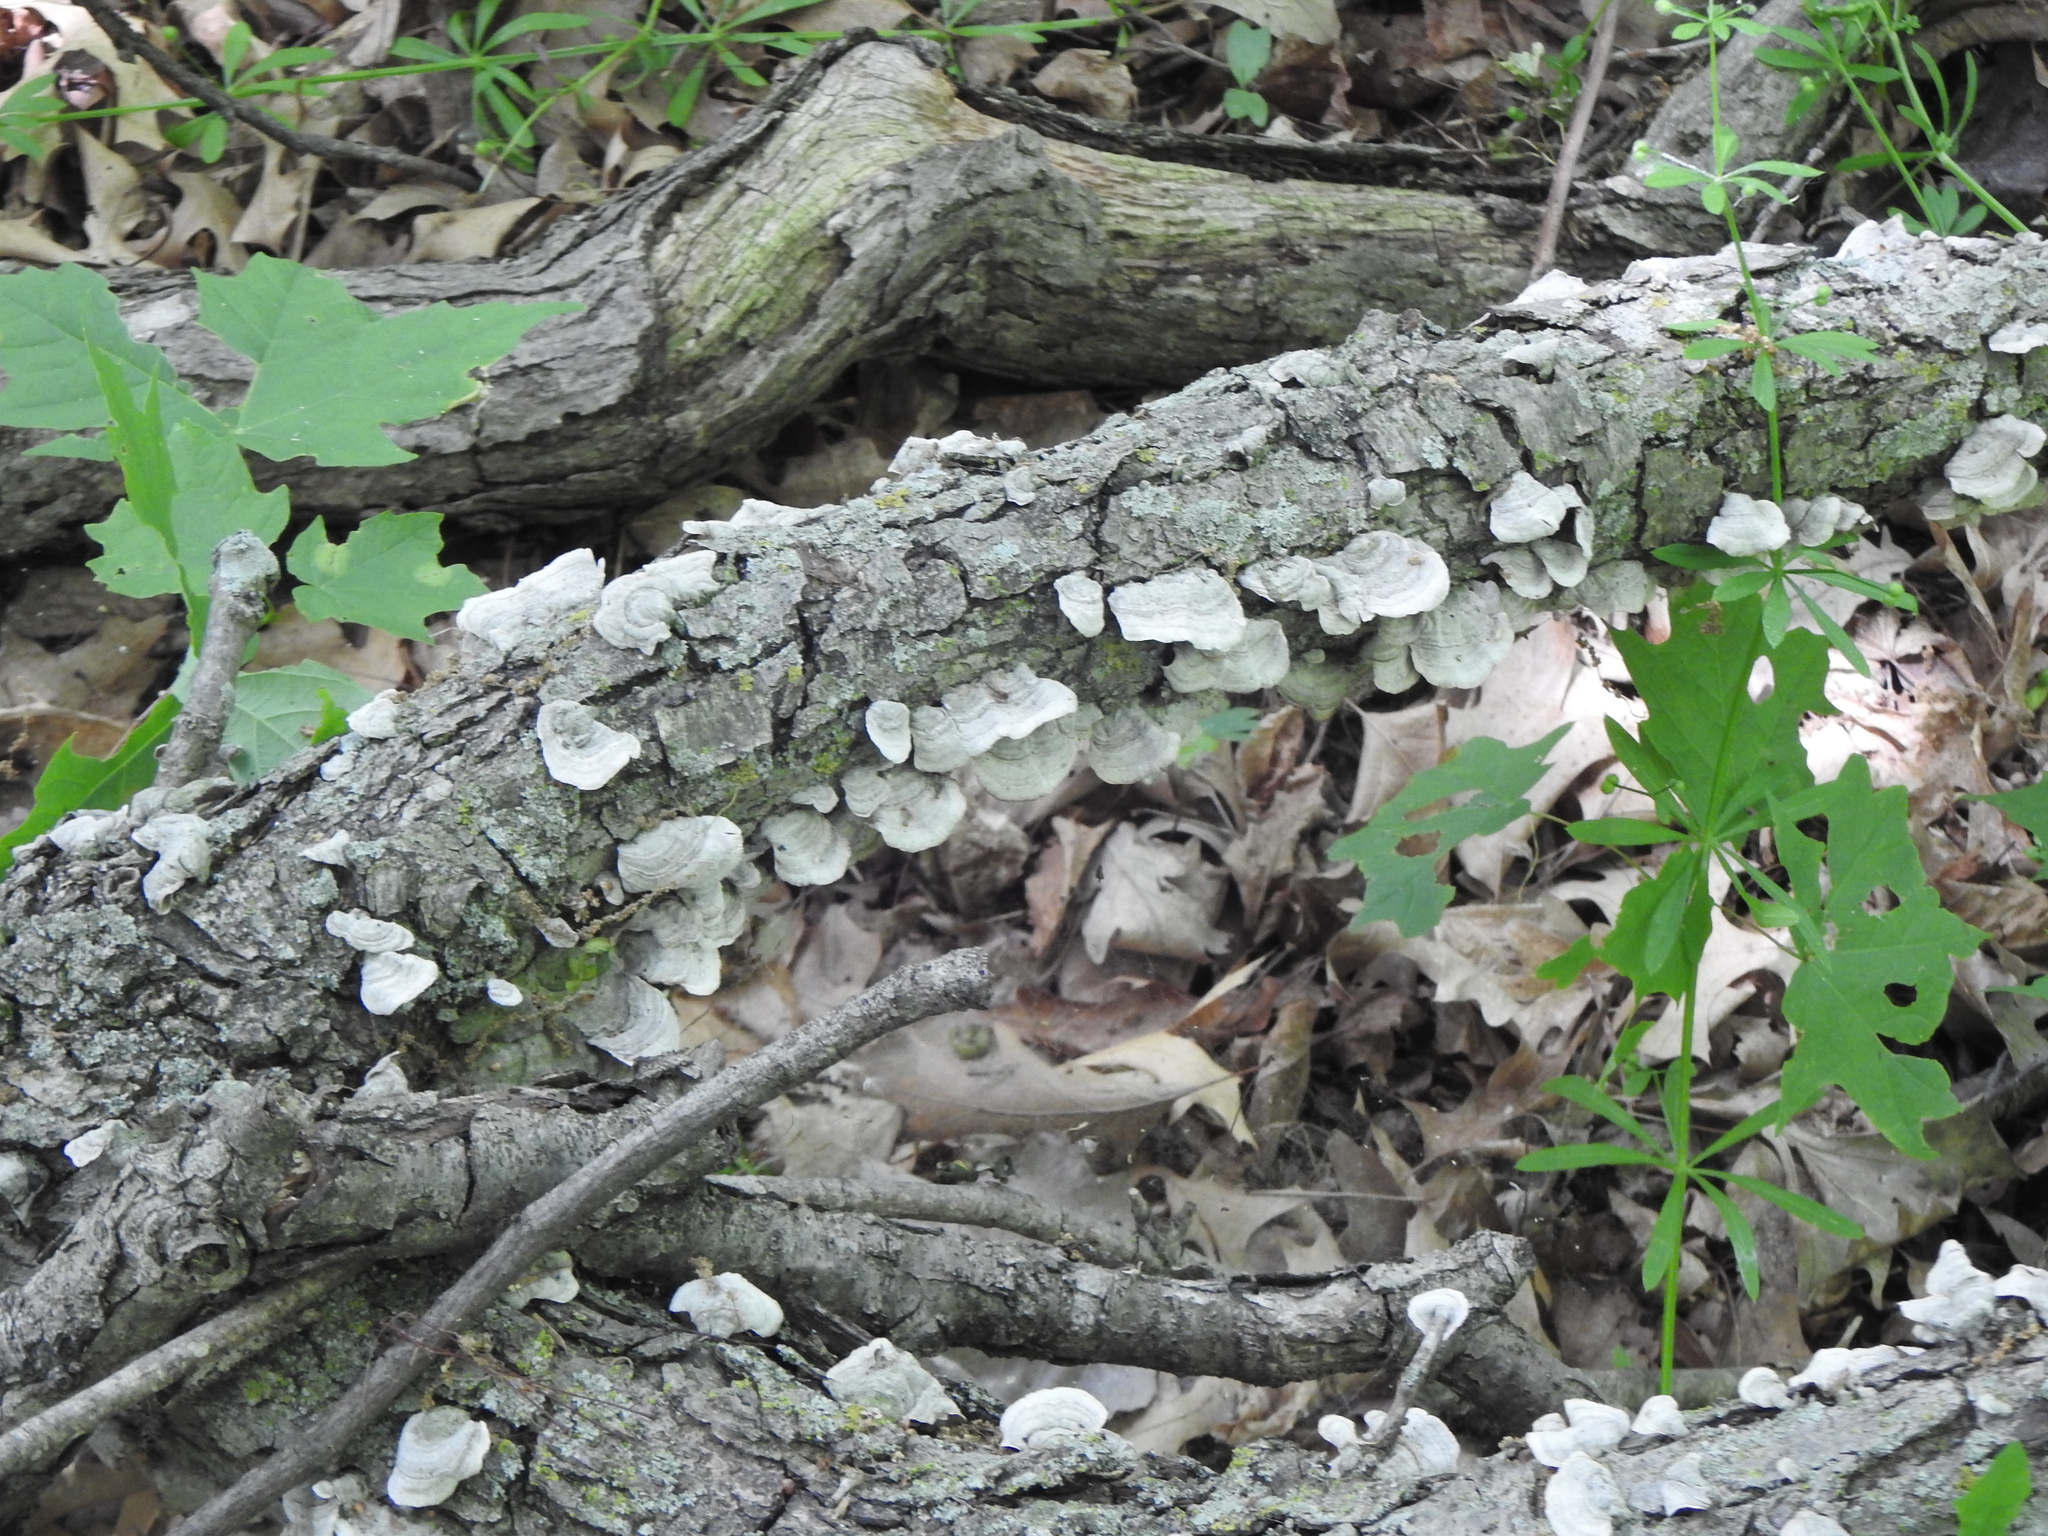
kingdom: Fungi
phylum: Basidiomycota
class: Agaricomycetes
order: Polyporales
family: Polyporaceae
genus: Poronidulus
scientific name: Poronidulus conchifer
